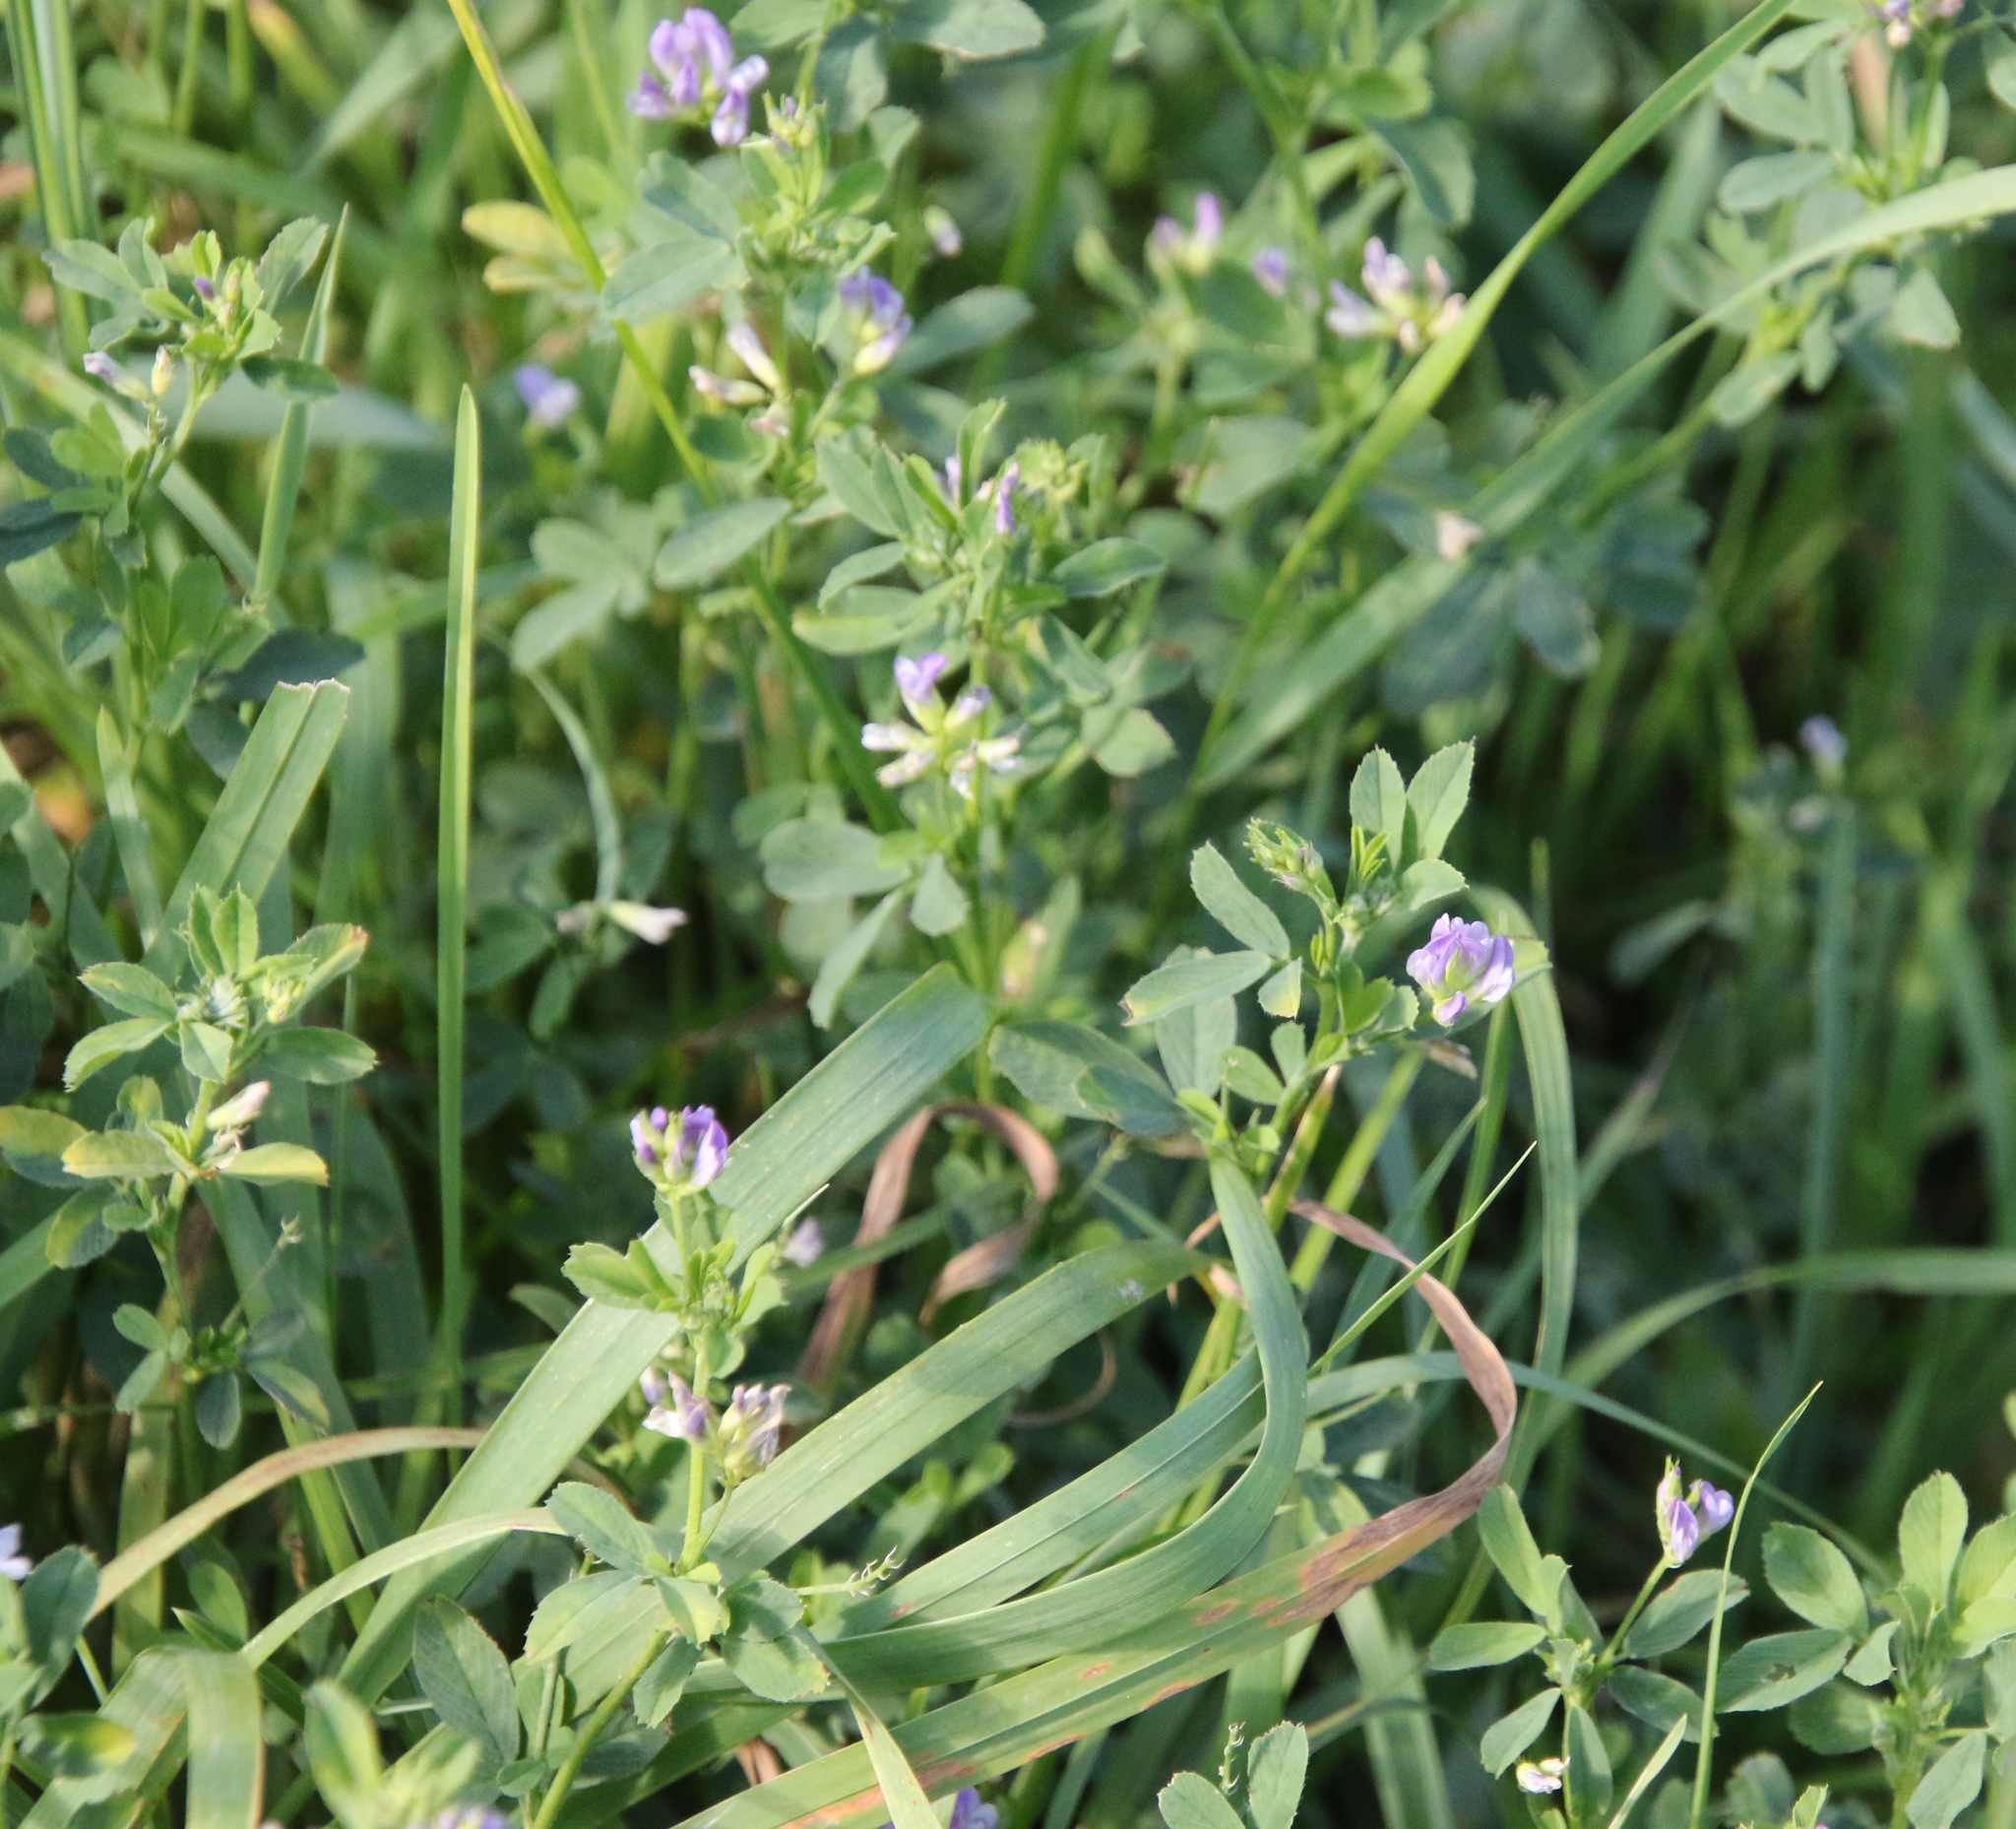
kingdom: Plantae
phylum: Tracheophyta
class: Magnoliopsida
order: Fabales
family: Fabaceae
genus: Medicago
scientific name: Medicago sativa
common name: Alfalfa
